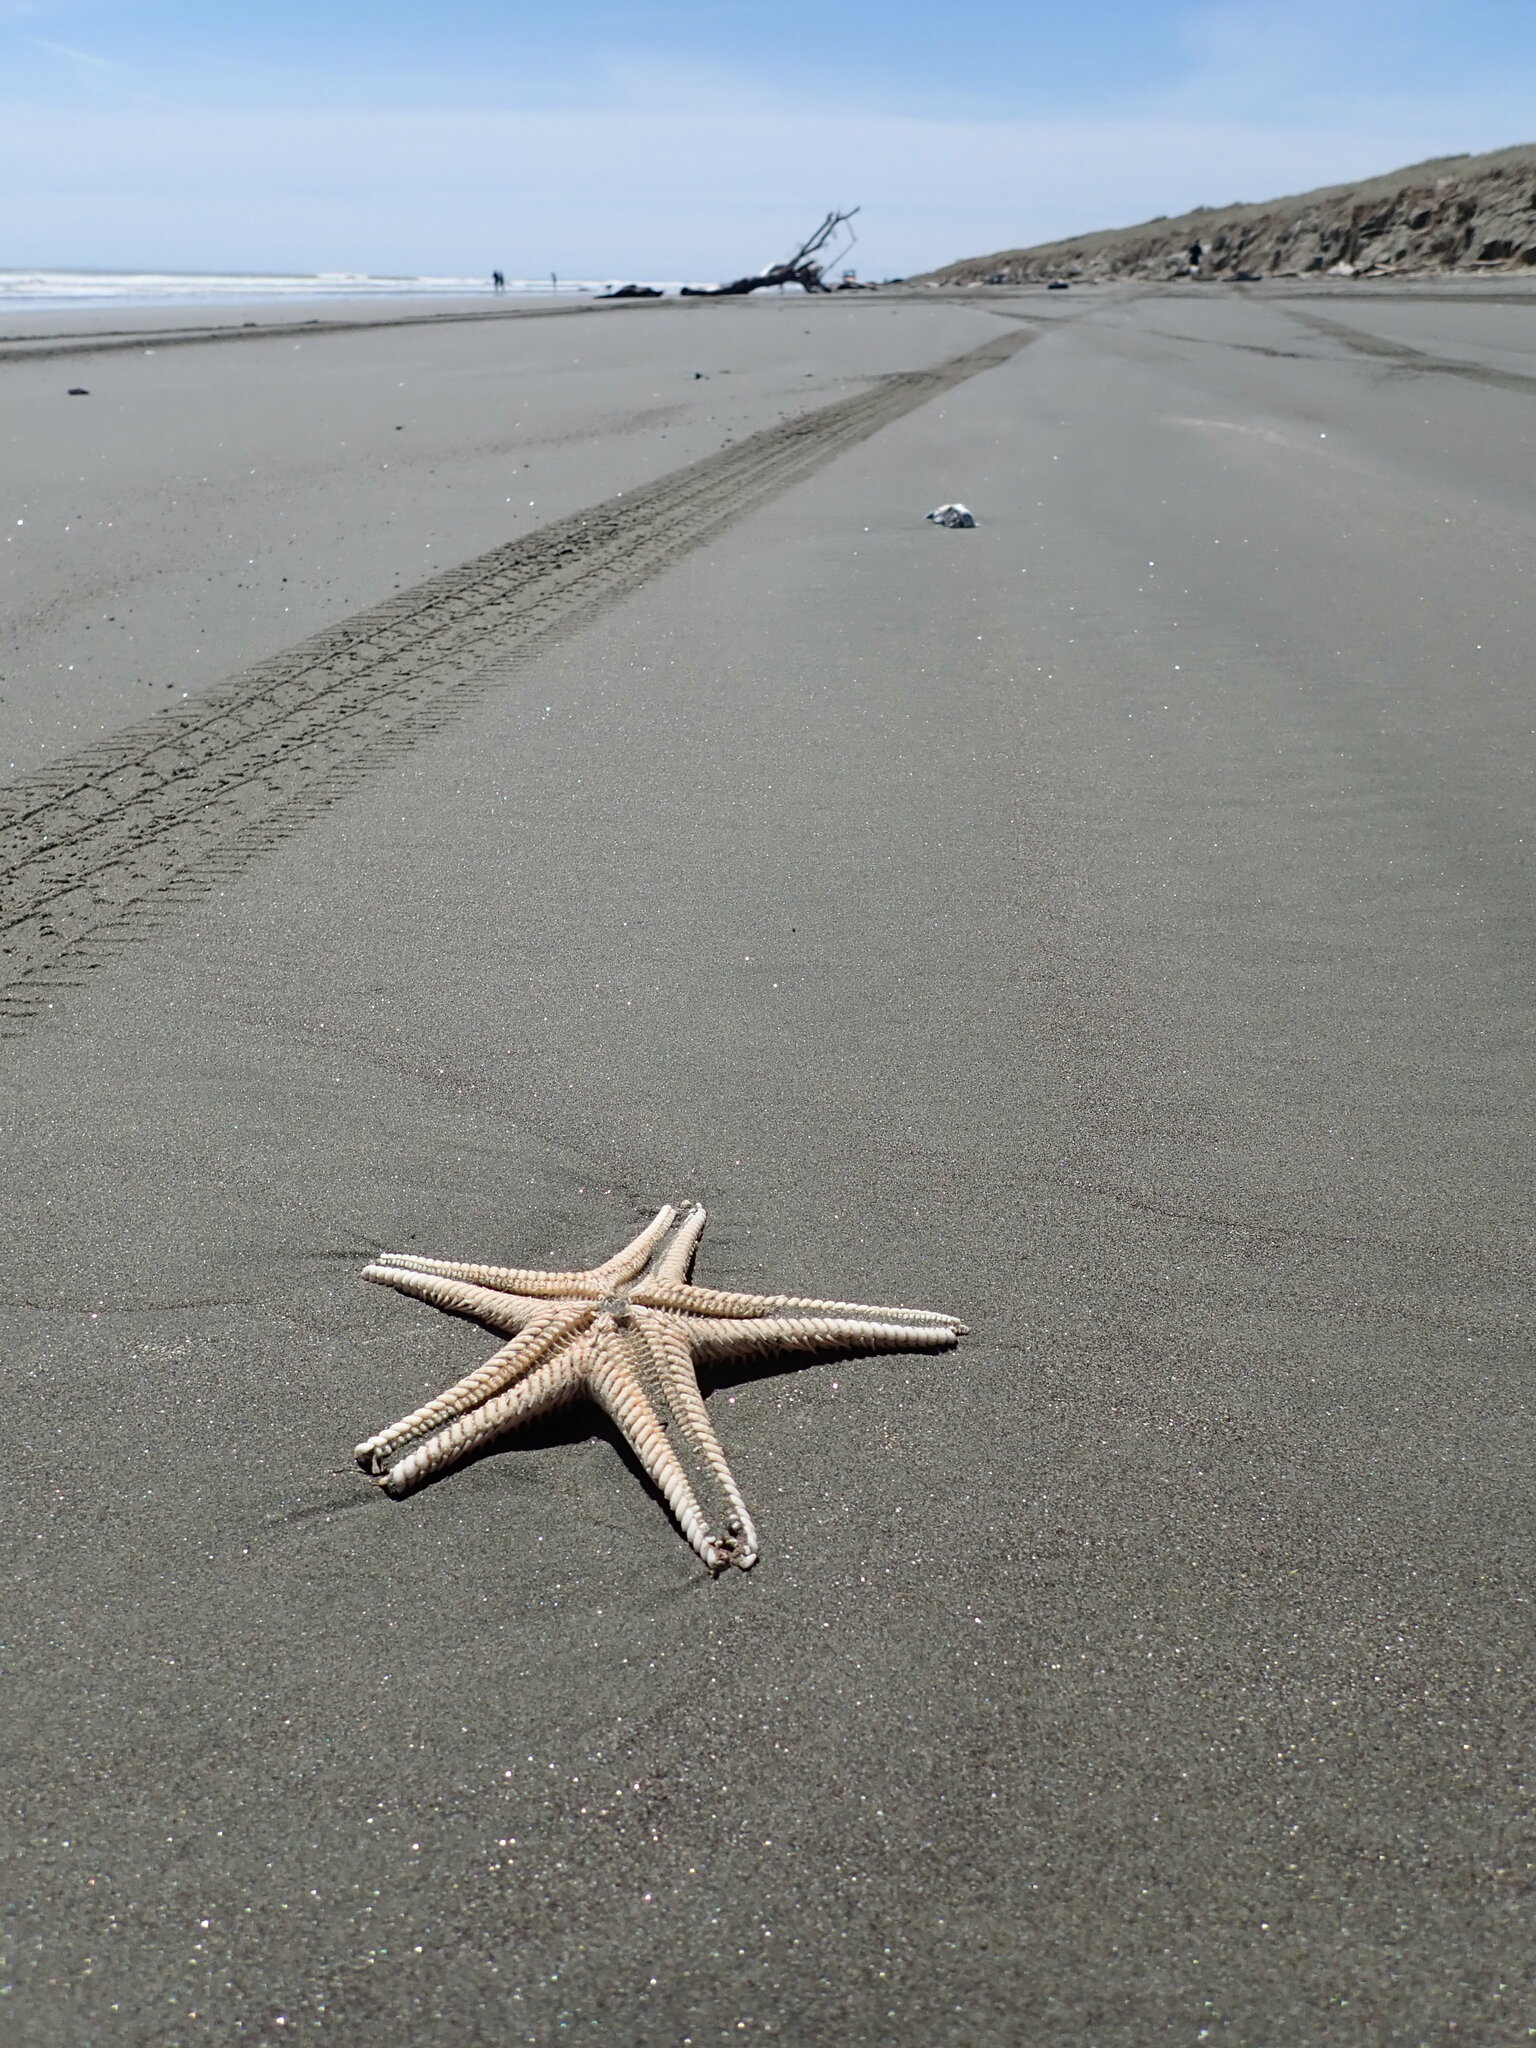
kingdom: Animalia
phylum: Echinodermata
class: Asteroidea
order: Paxillosida
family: Astropectinidae
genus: Astropecten
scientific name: Astropecten polyacanthus
